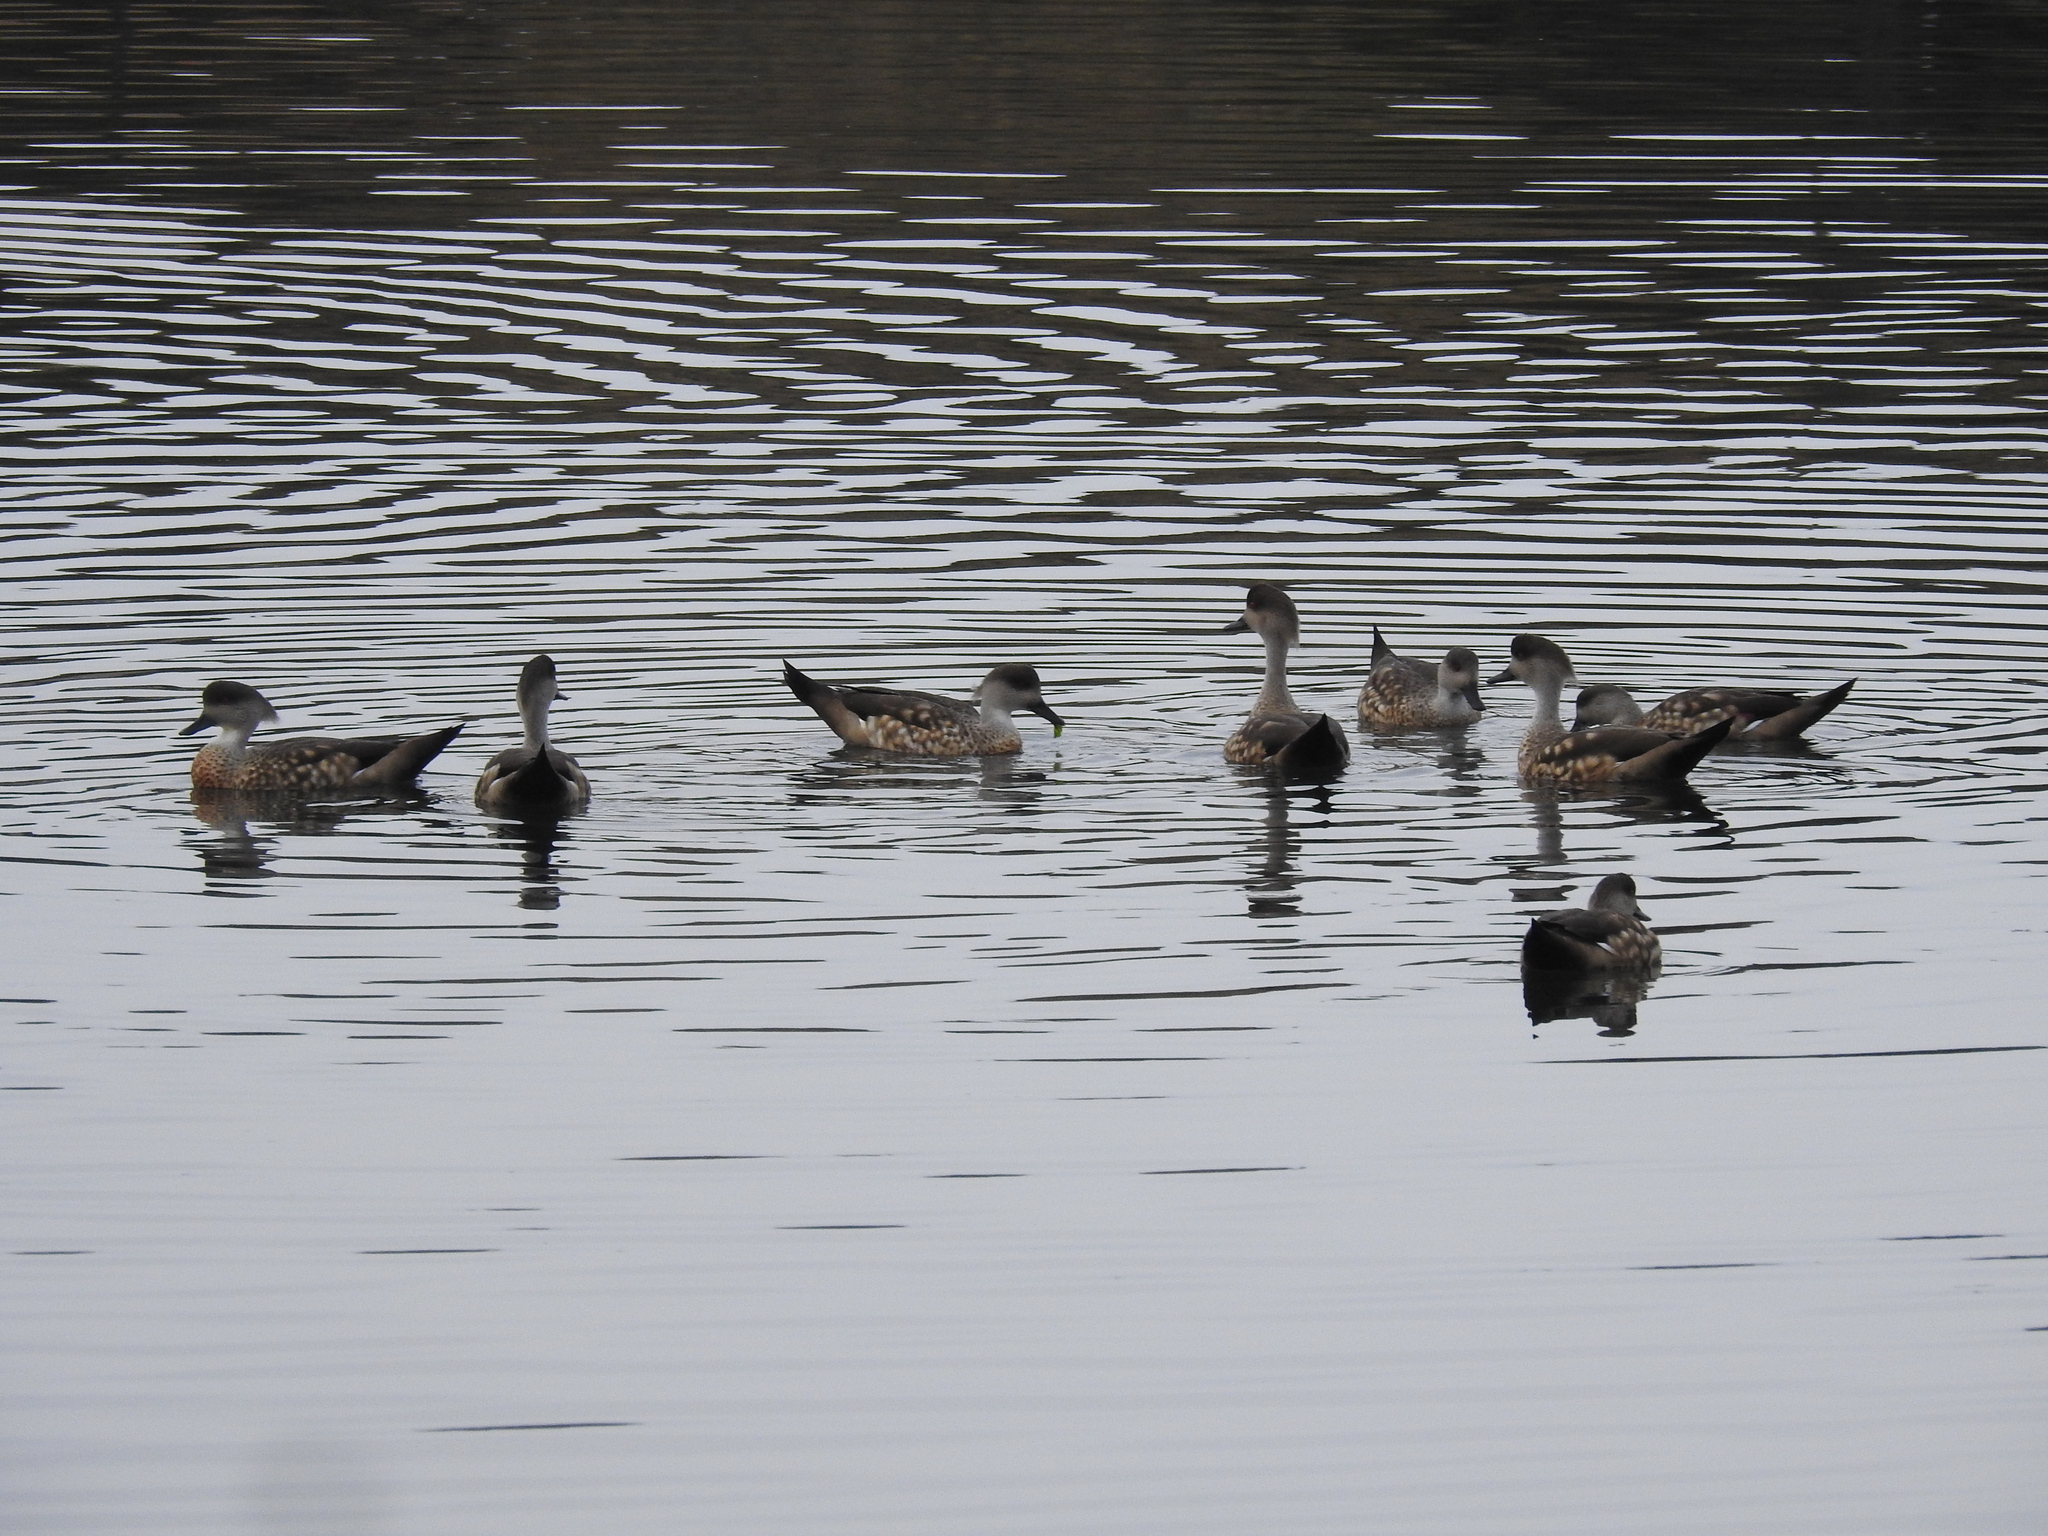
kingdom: Animalia
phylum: Chordata
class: Aves
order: Anseriformes
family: Anatidae
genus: Lophonetta
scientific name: Lophonetta specularioides
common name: Crested duck
